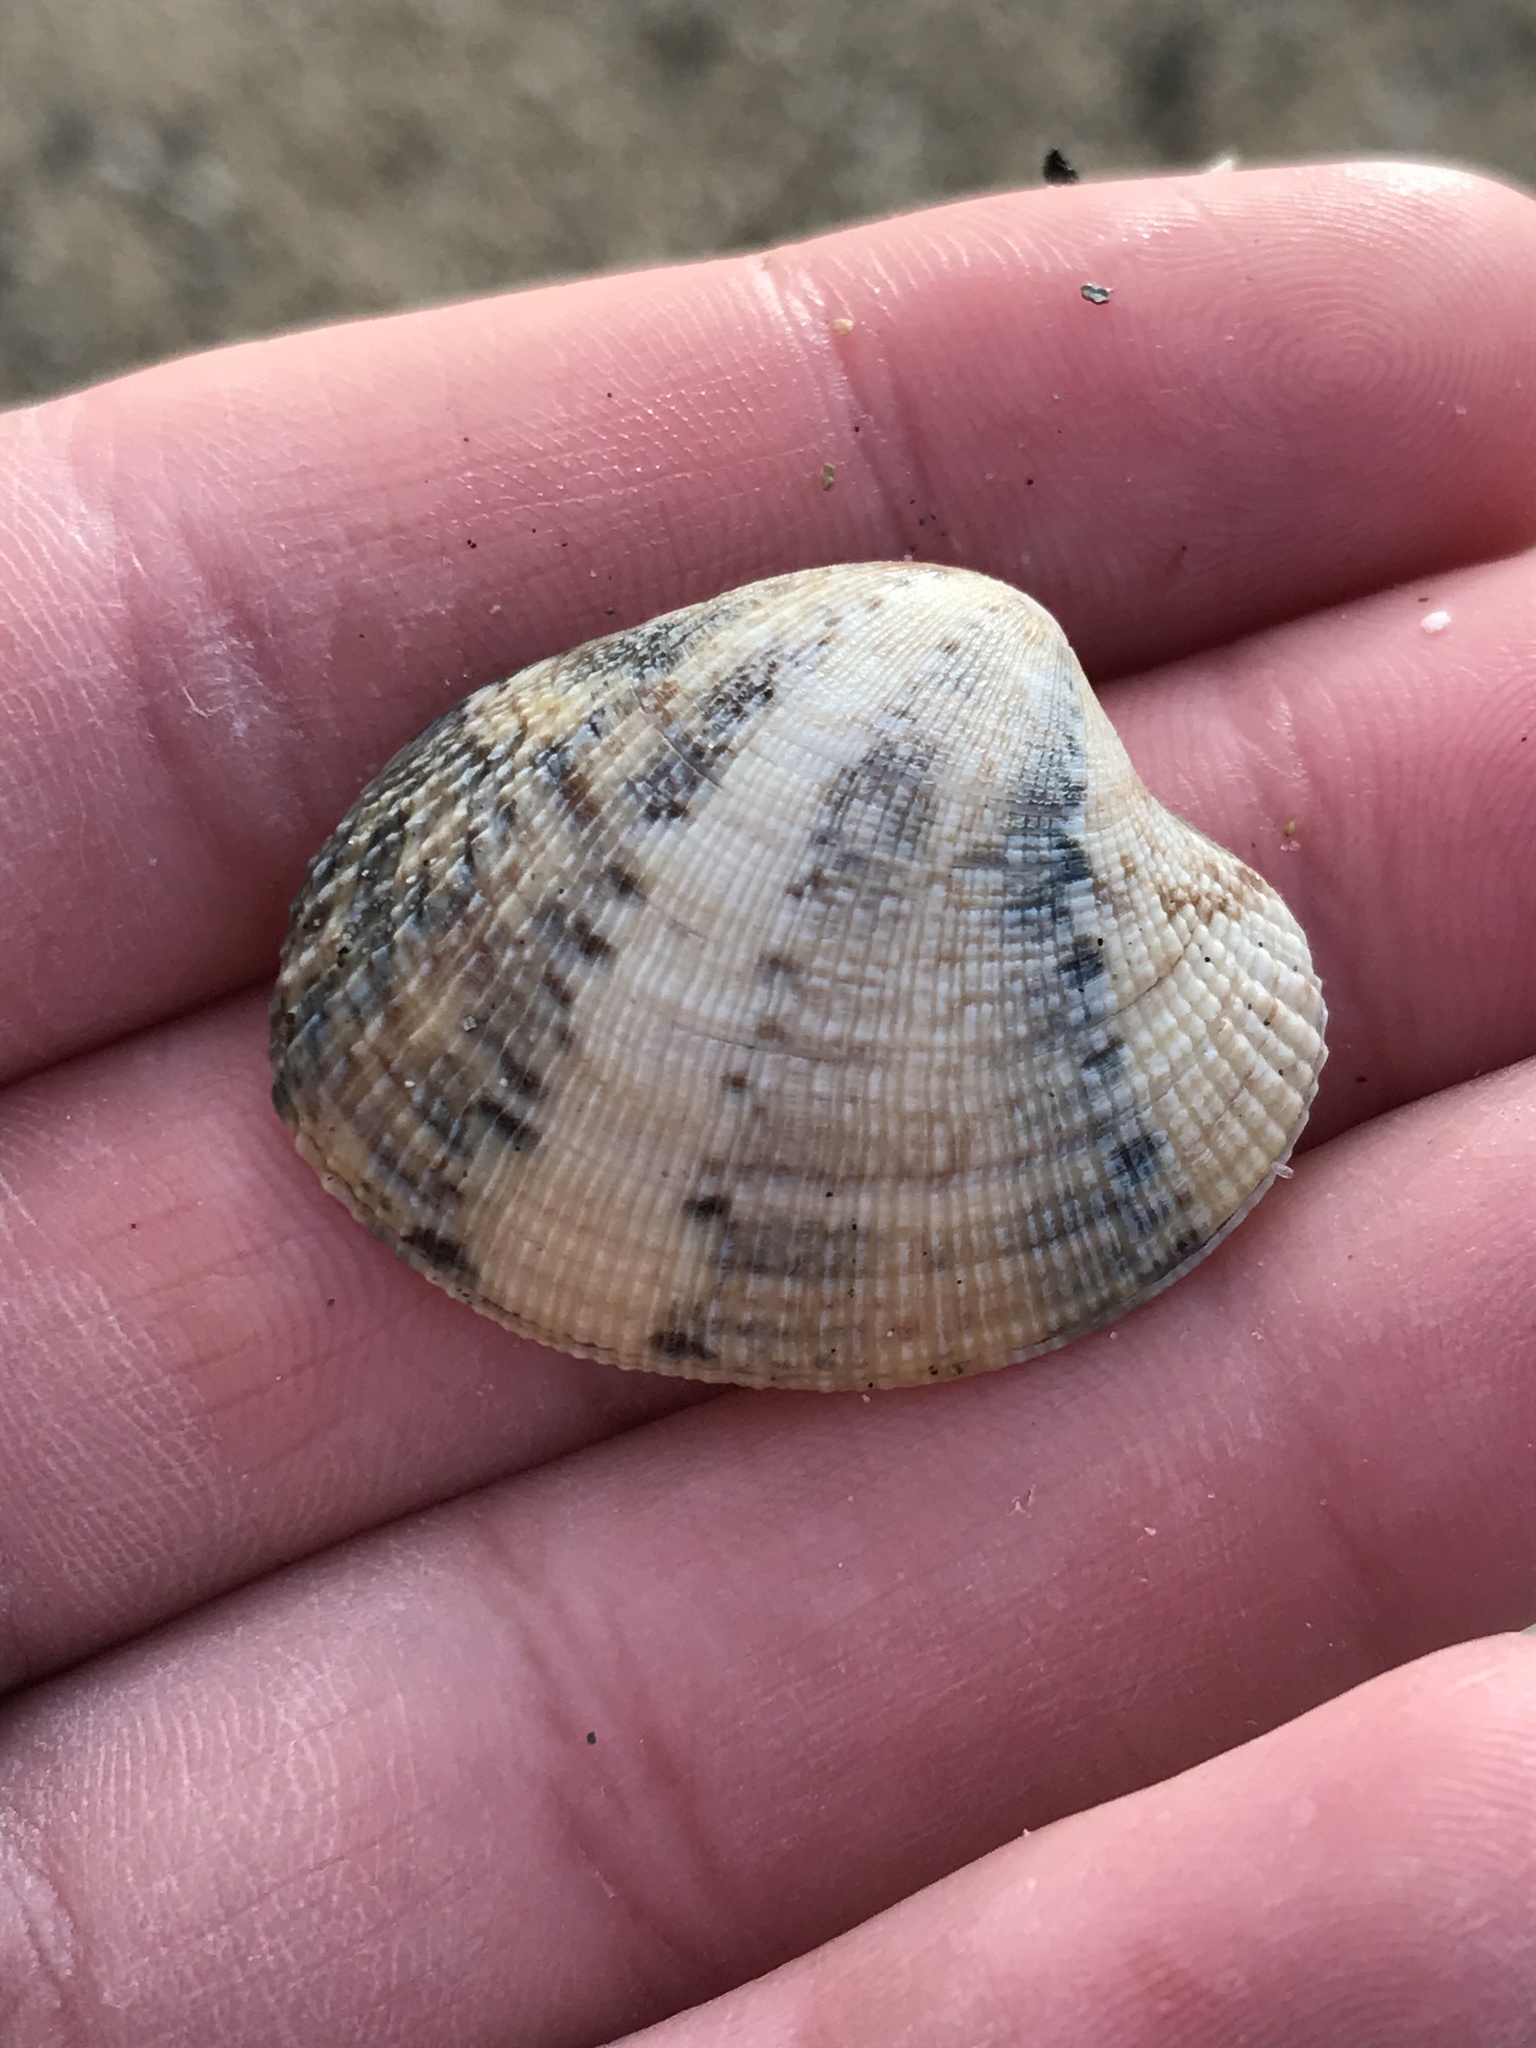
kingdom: Animalia
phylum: Mollusca
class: Bivalvia
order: Venerida
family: Veneridae
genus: Ruditapes
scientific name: Ruditapes philippinarum
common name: Manila clam
